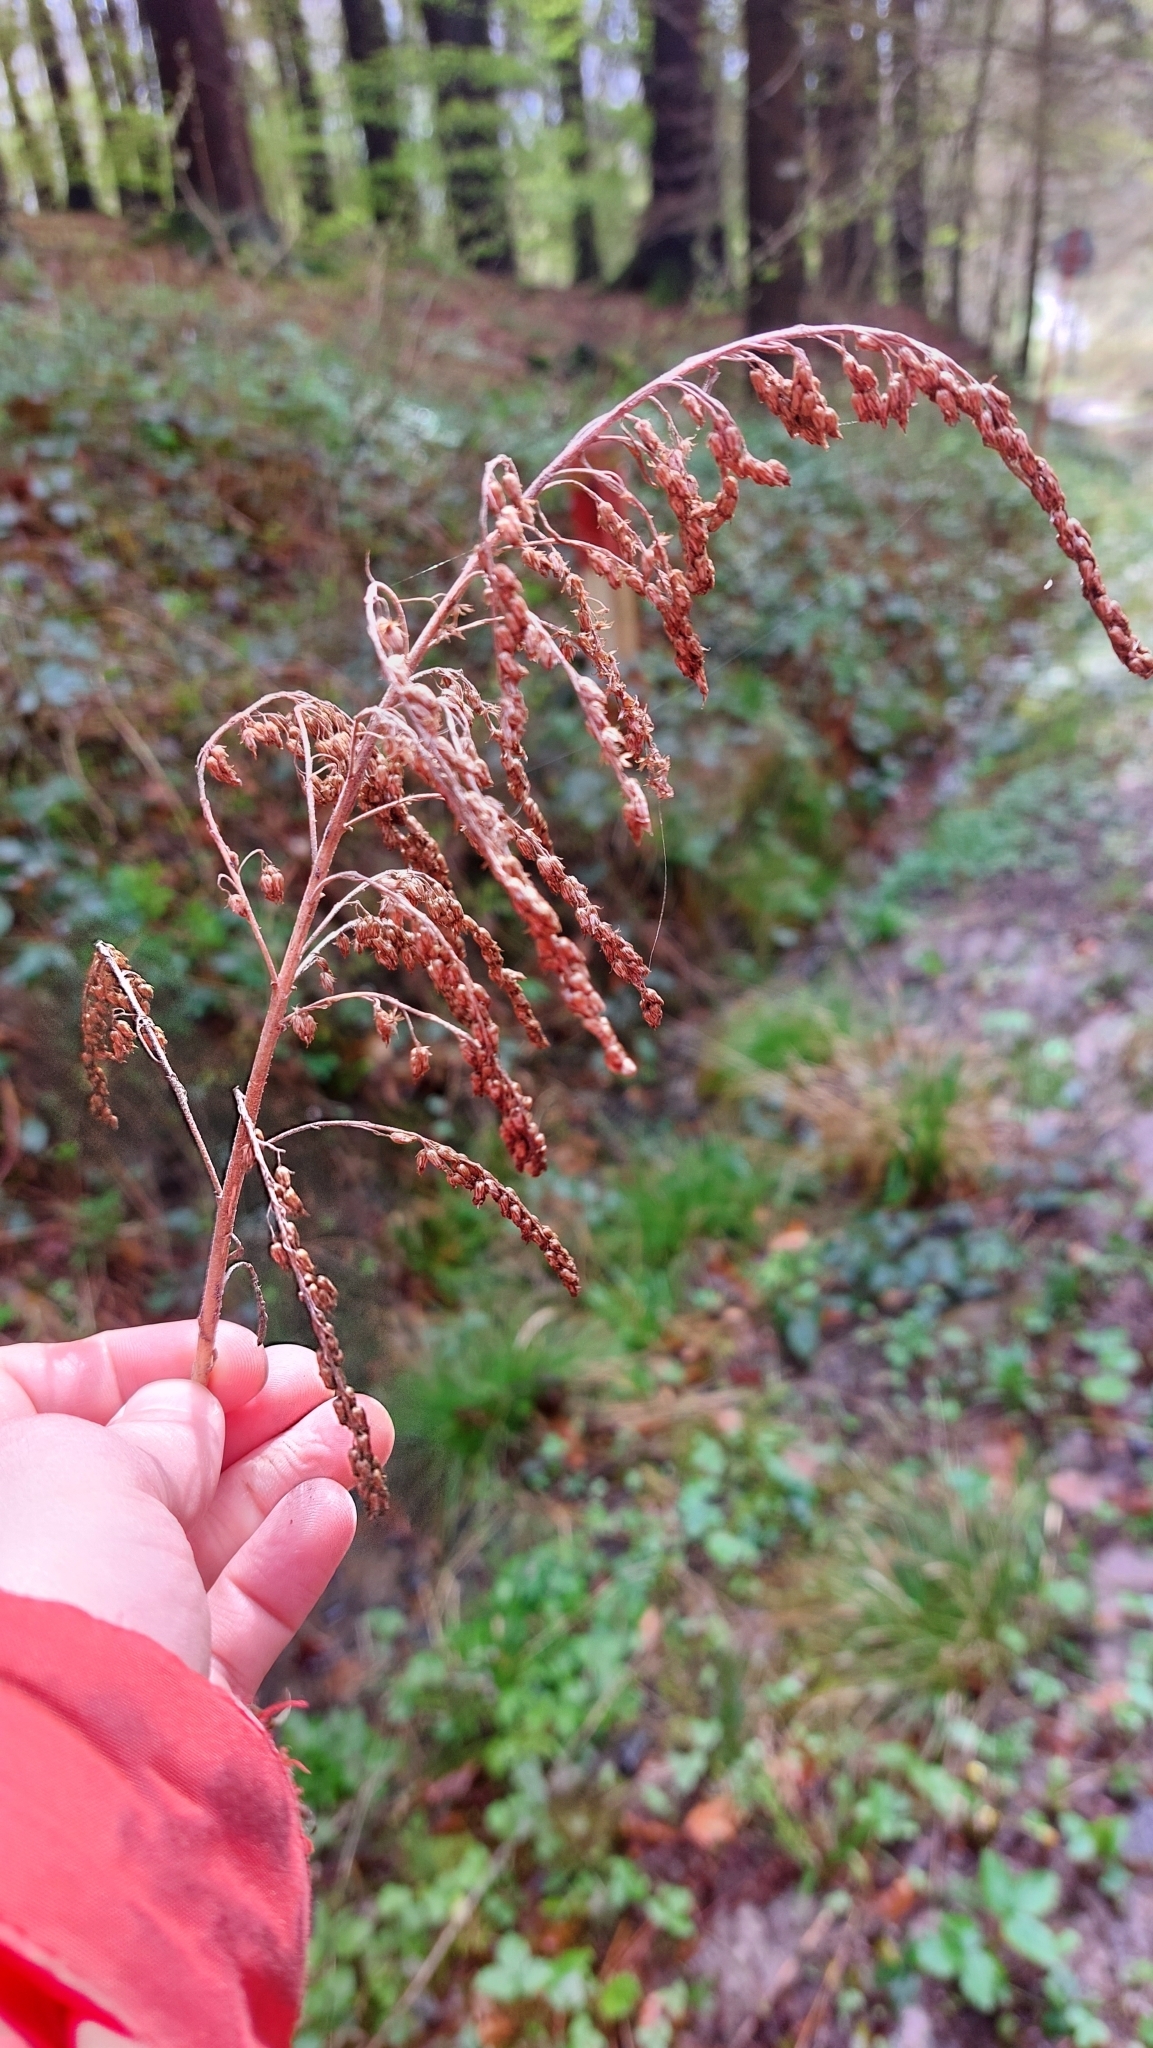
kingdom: Plantae
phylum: Tracheophyta
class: Magnoliopsida
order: Rosales
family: Rosaceae
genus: Aruncus
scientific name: Aruncus dioicus
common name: Buck's-beard
